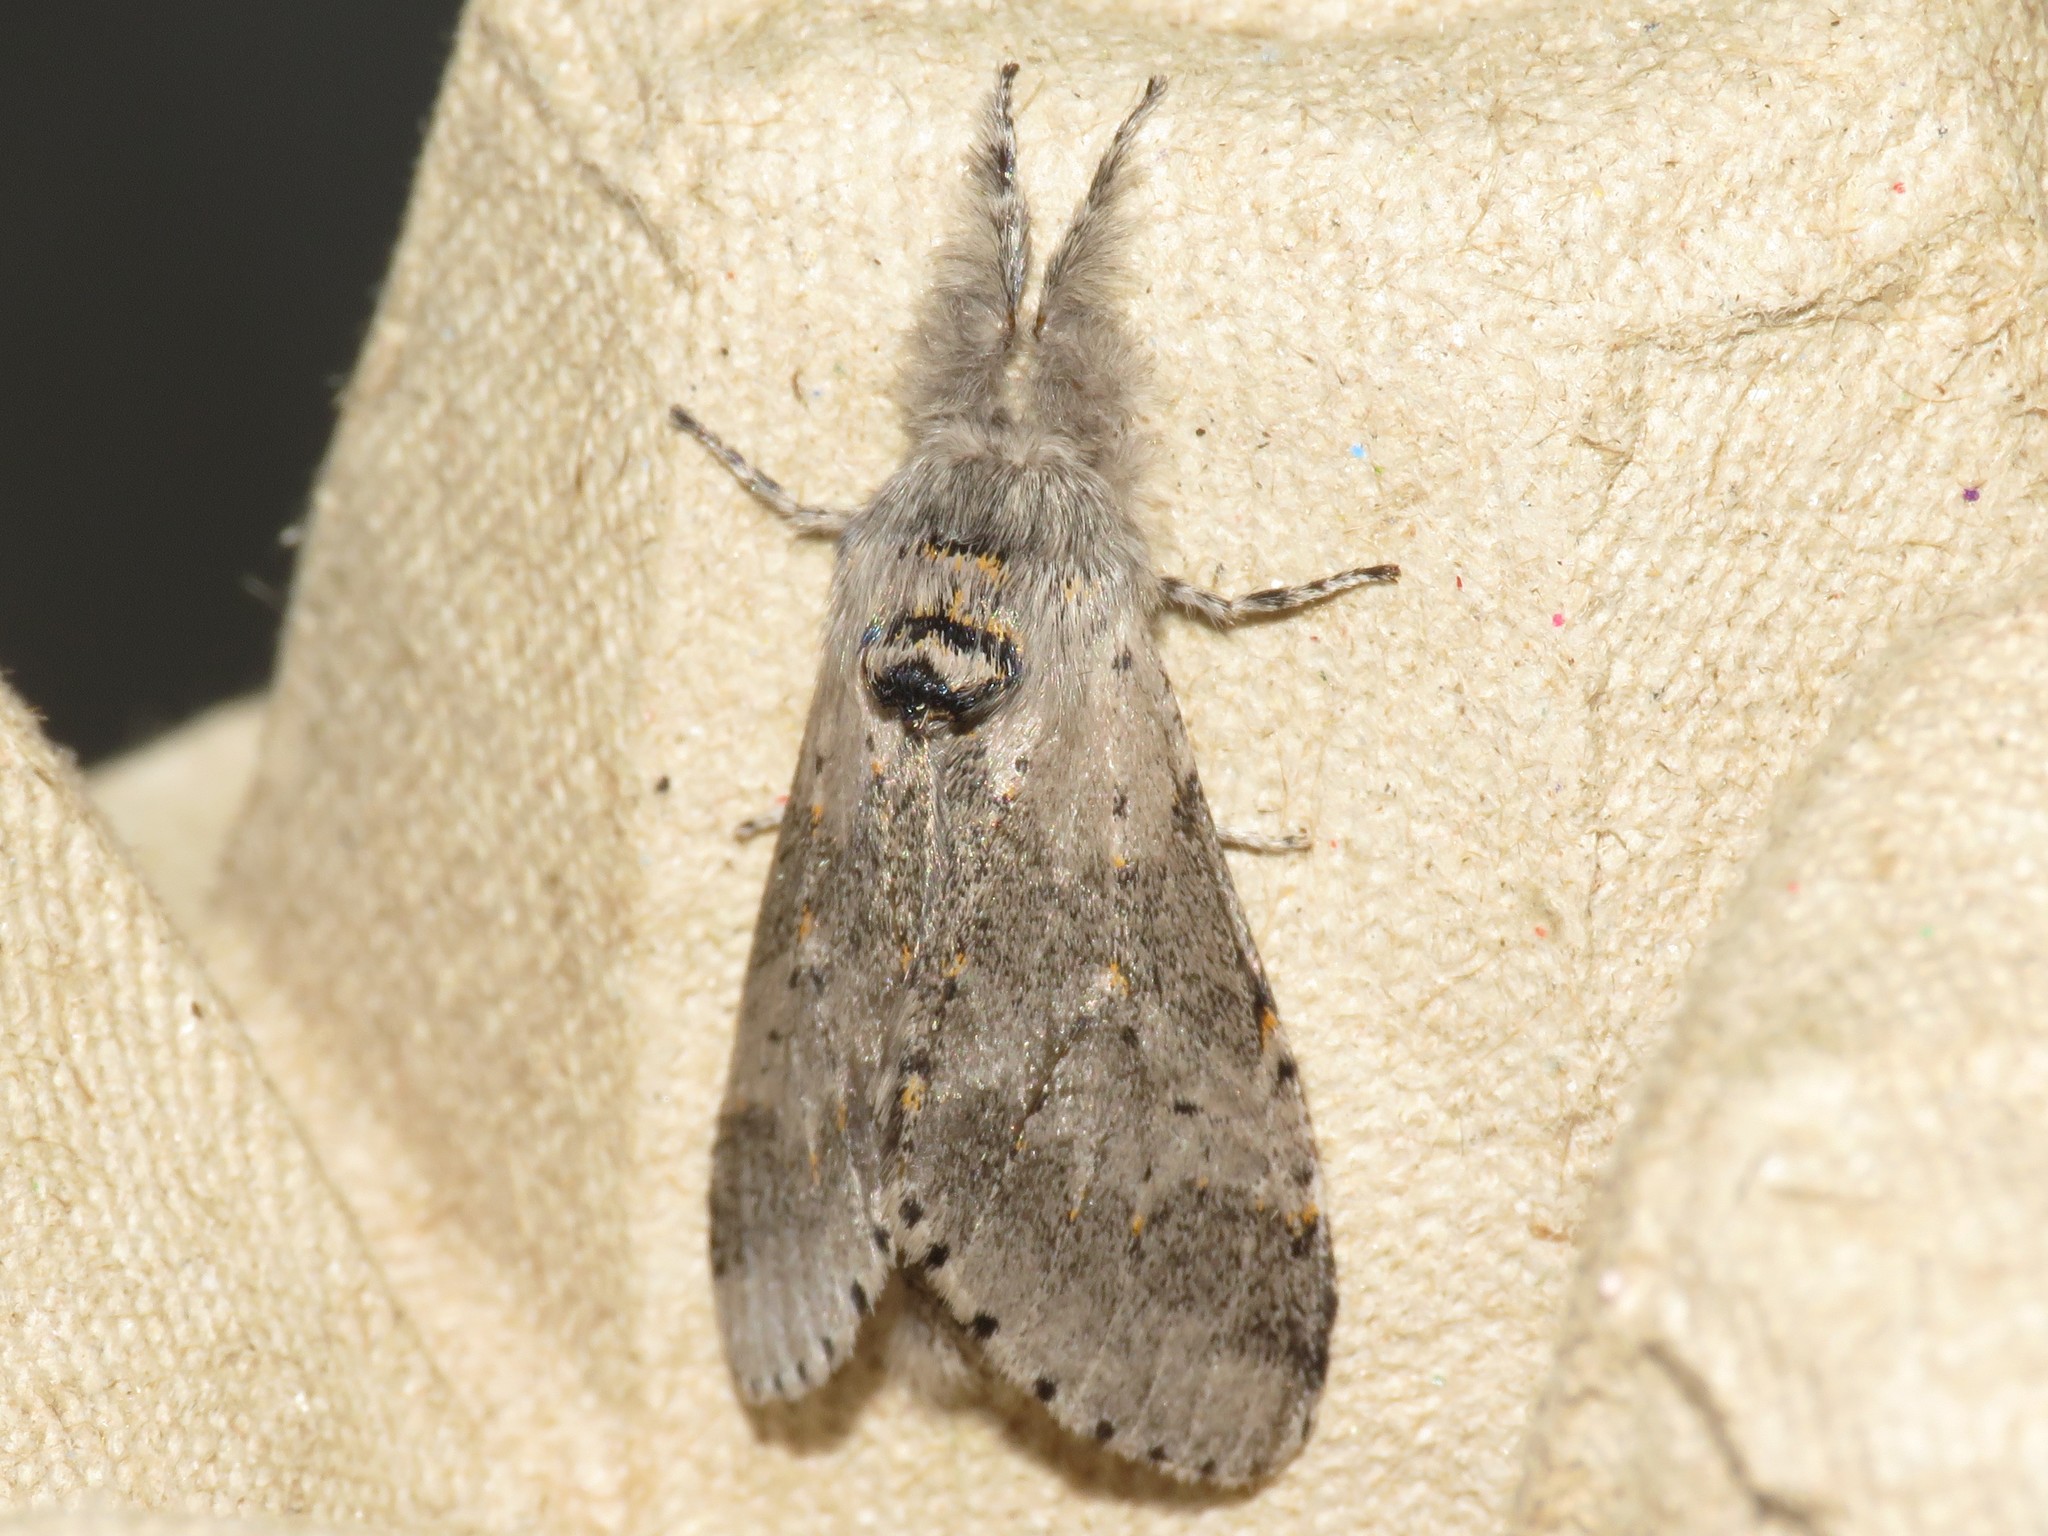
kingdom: Animalia
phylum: Arthropoda
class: Insecta
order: Lepidoptera
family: Notodontidae
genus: Furcula
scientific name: Furcula cinerea
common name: Gray furcula
